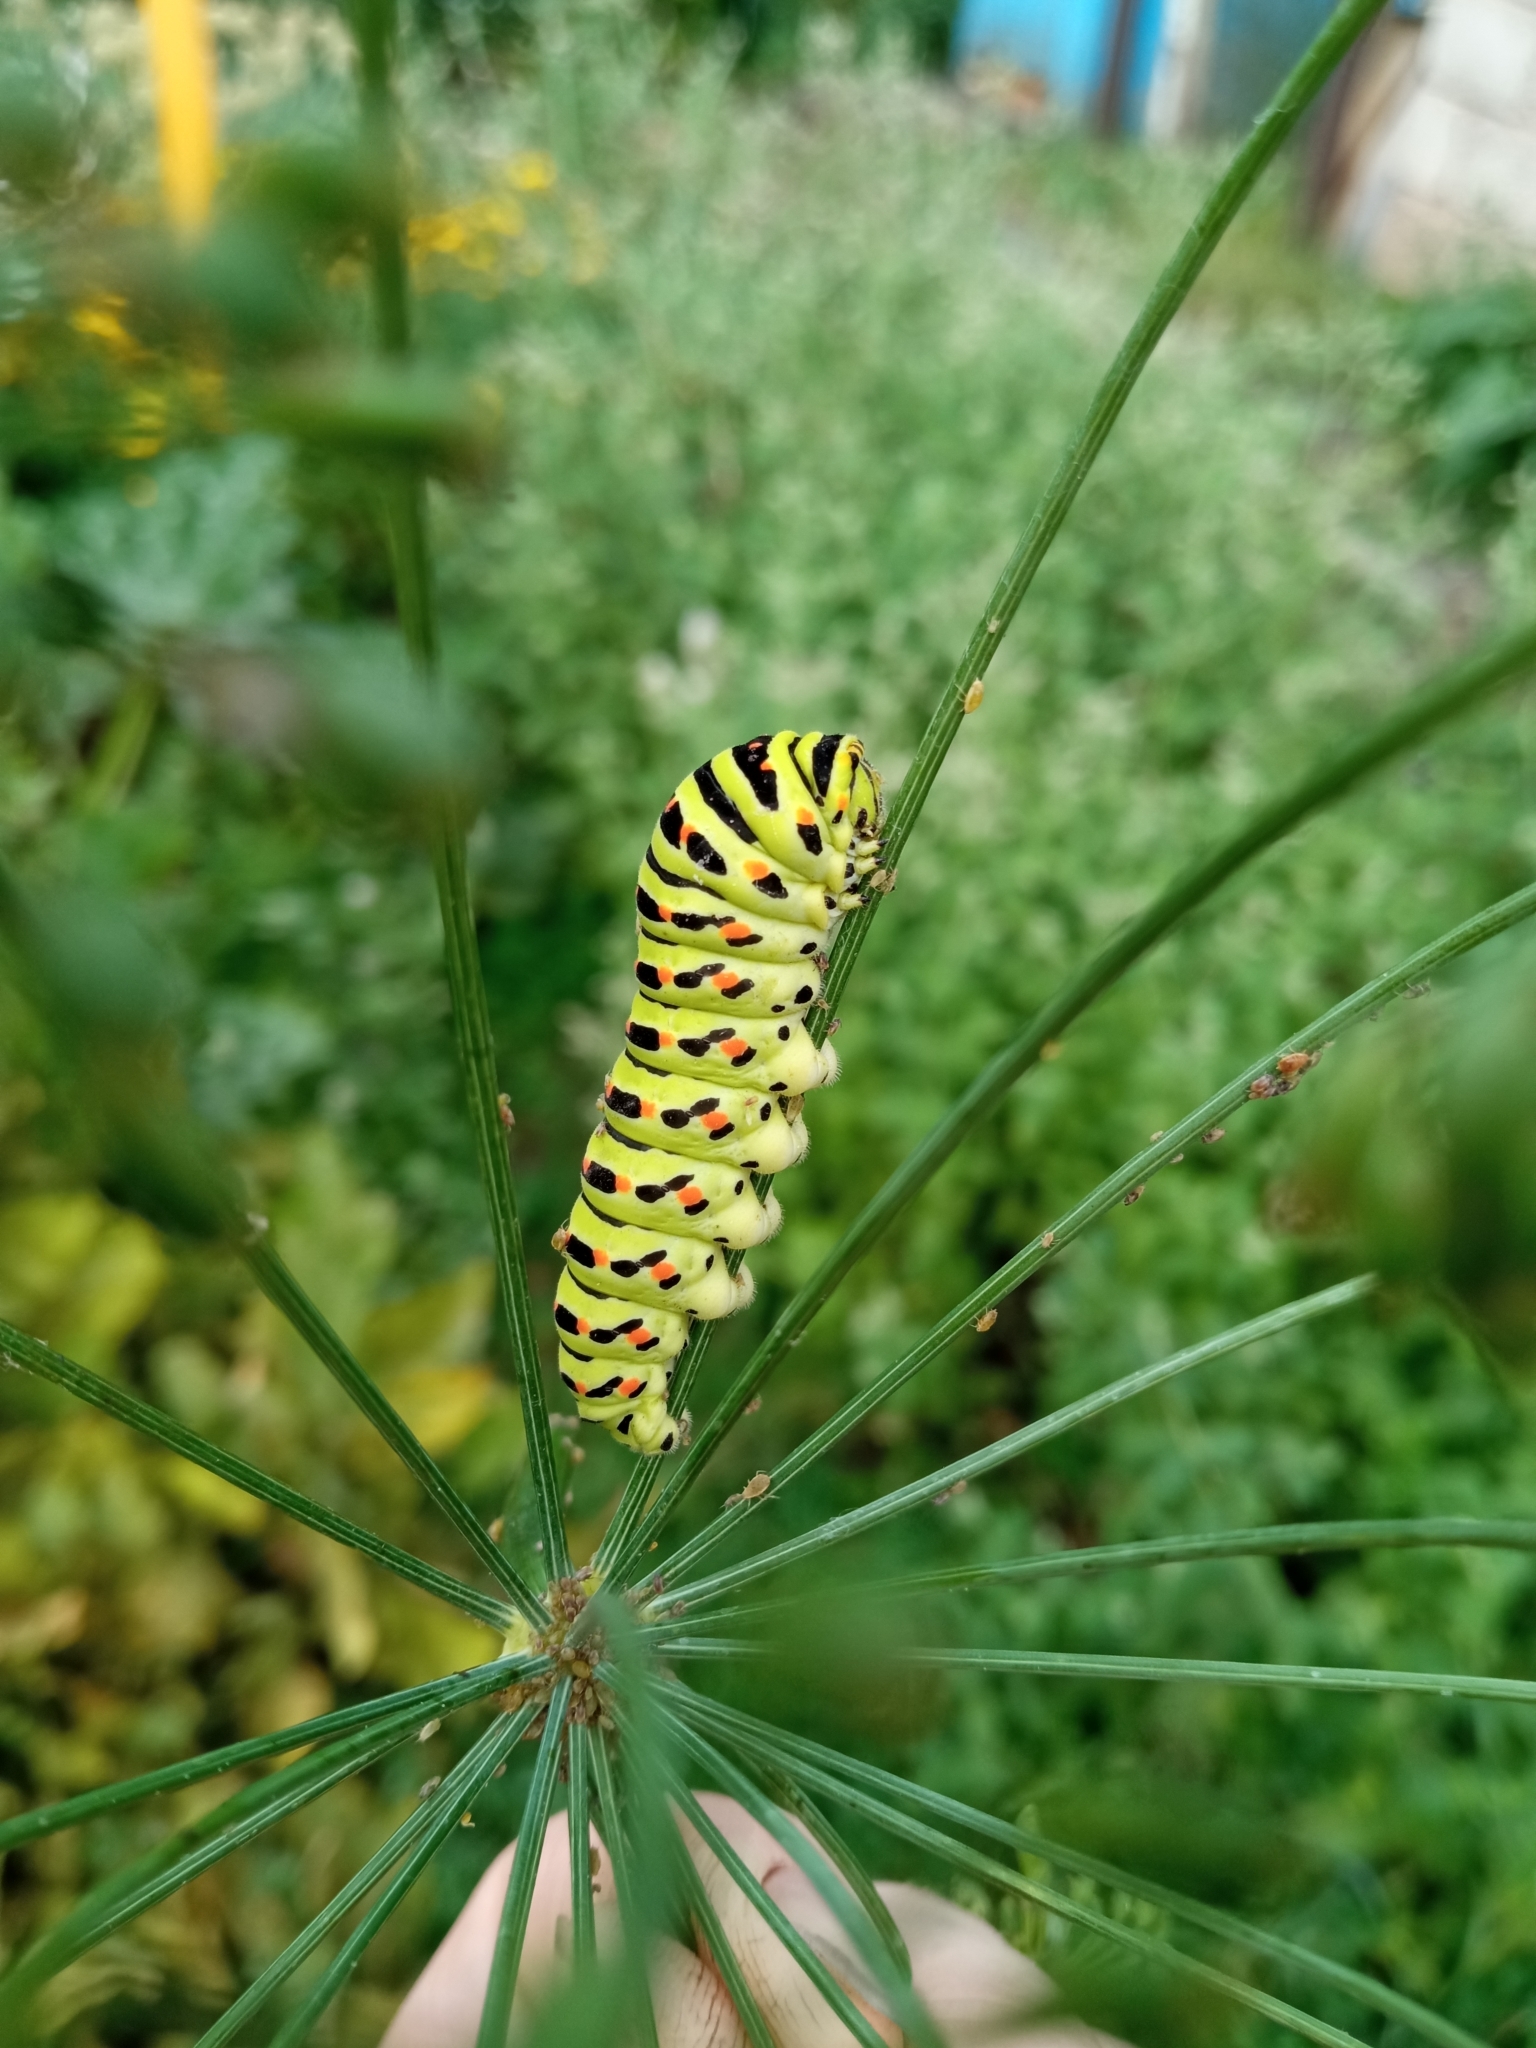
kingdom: Animalia
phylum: Arthropoda
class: Insecta
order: Lepidoptera
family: Papilionidae
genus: Papilio
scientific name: Papilio machaon
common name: Swallowtail
